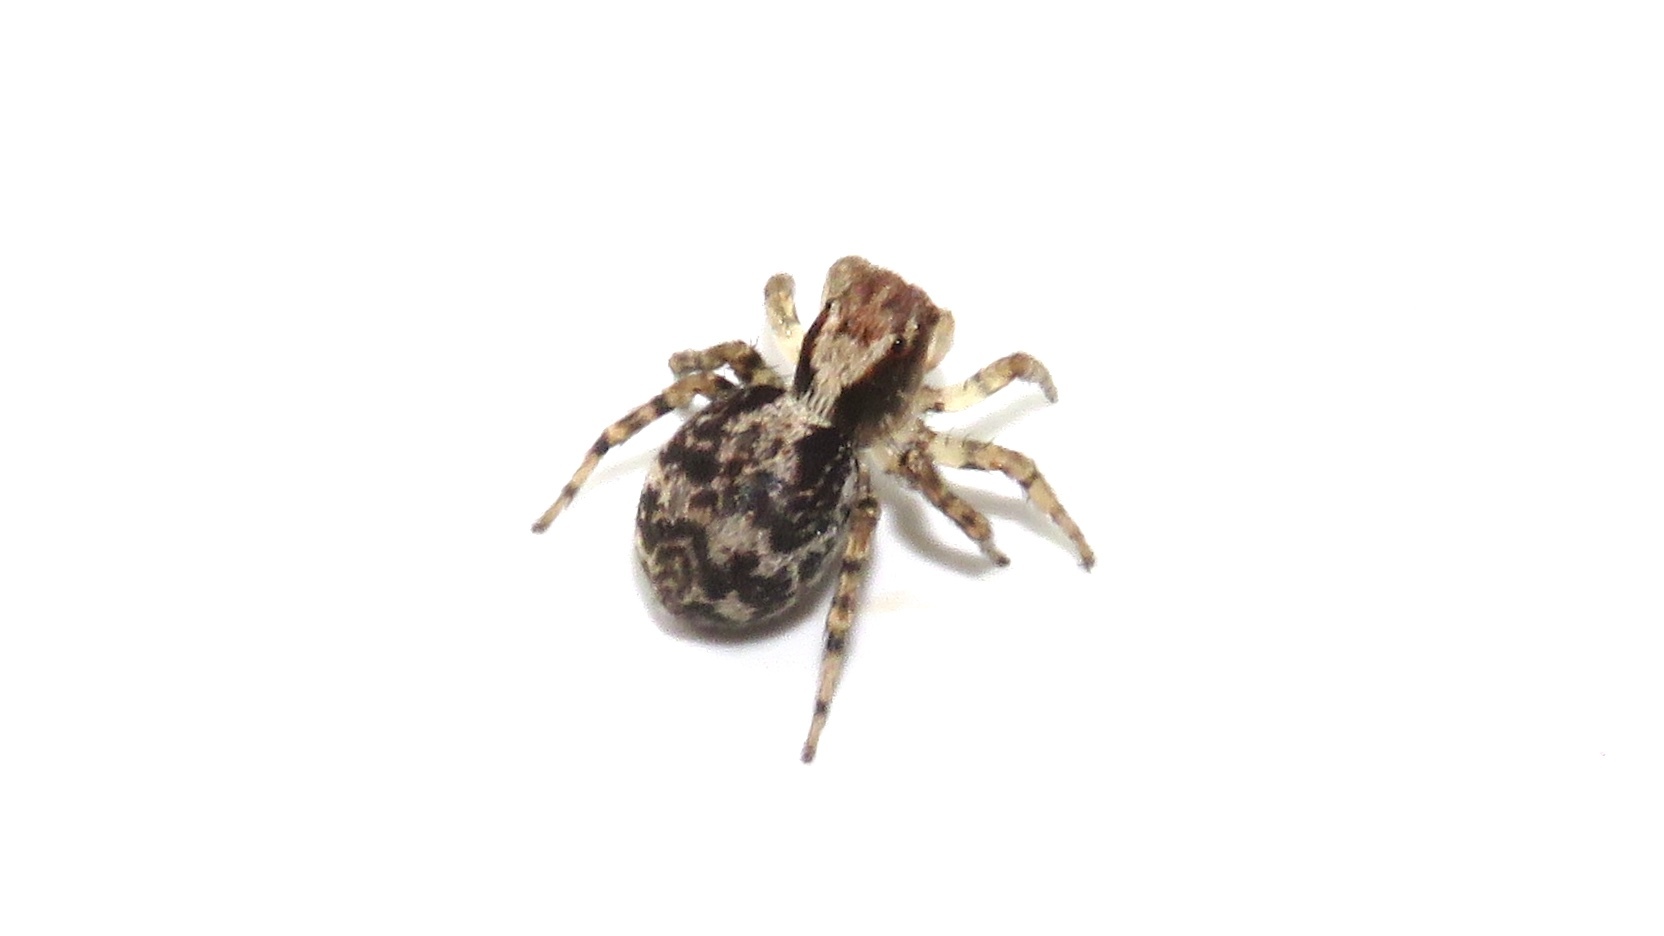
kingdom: Animalia
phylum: Arthropoda
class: Arachnida
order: Araneae
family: Salticidae
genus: Naphrys
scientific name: Naphrys pulex
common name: Flea jumping spider
